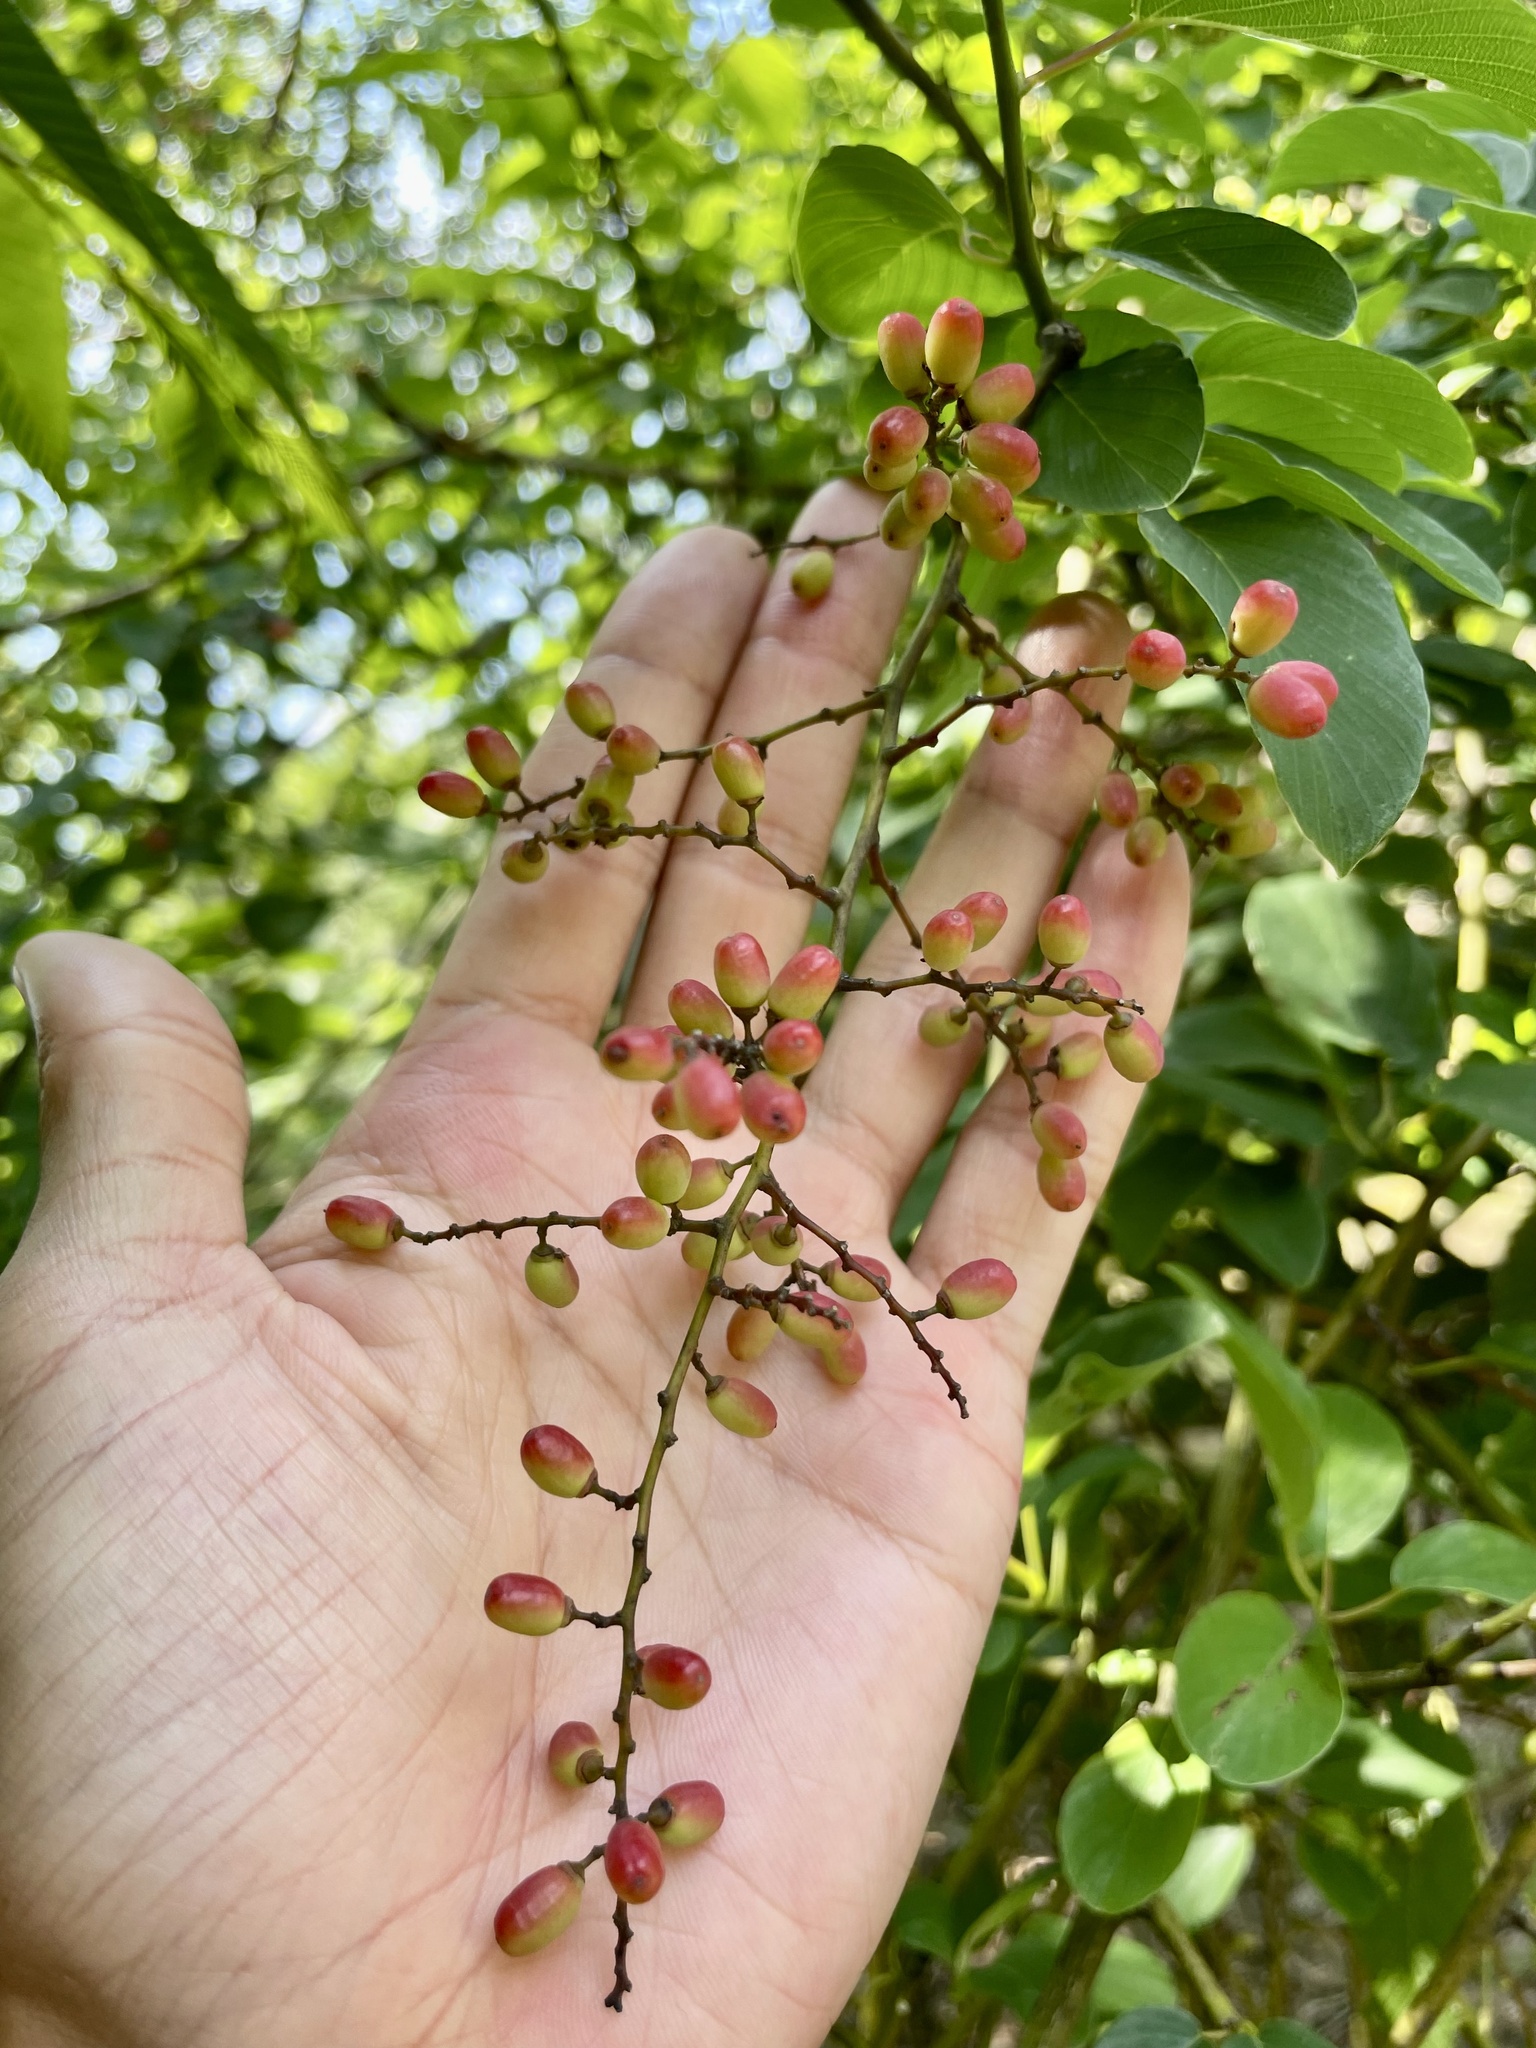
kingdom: Plantae
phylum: Tracheophyta
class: Magnoliopsida
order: Rosales
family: Rhamnaceae
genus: Berchemia
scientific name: Berchemia floribunda
